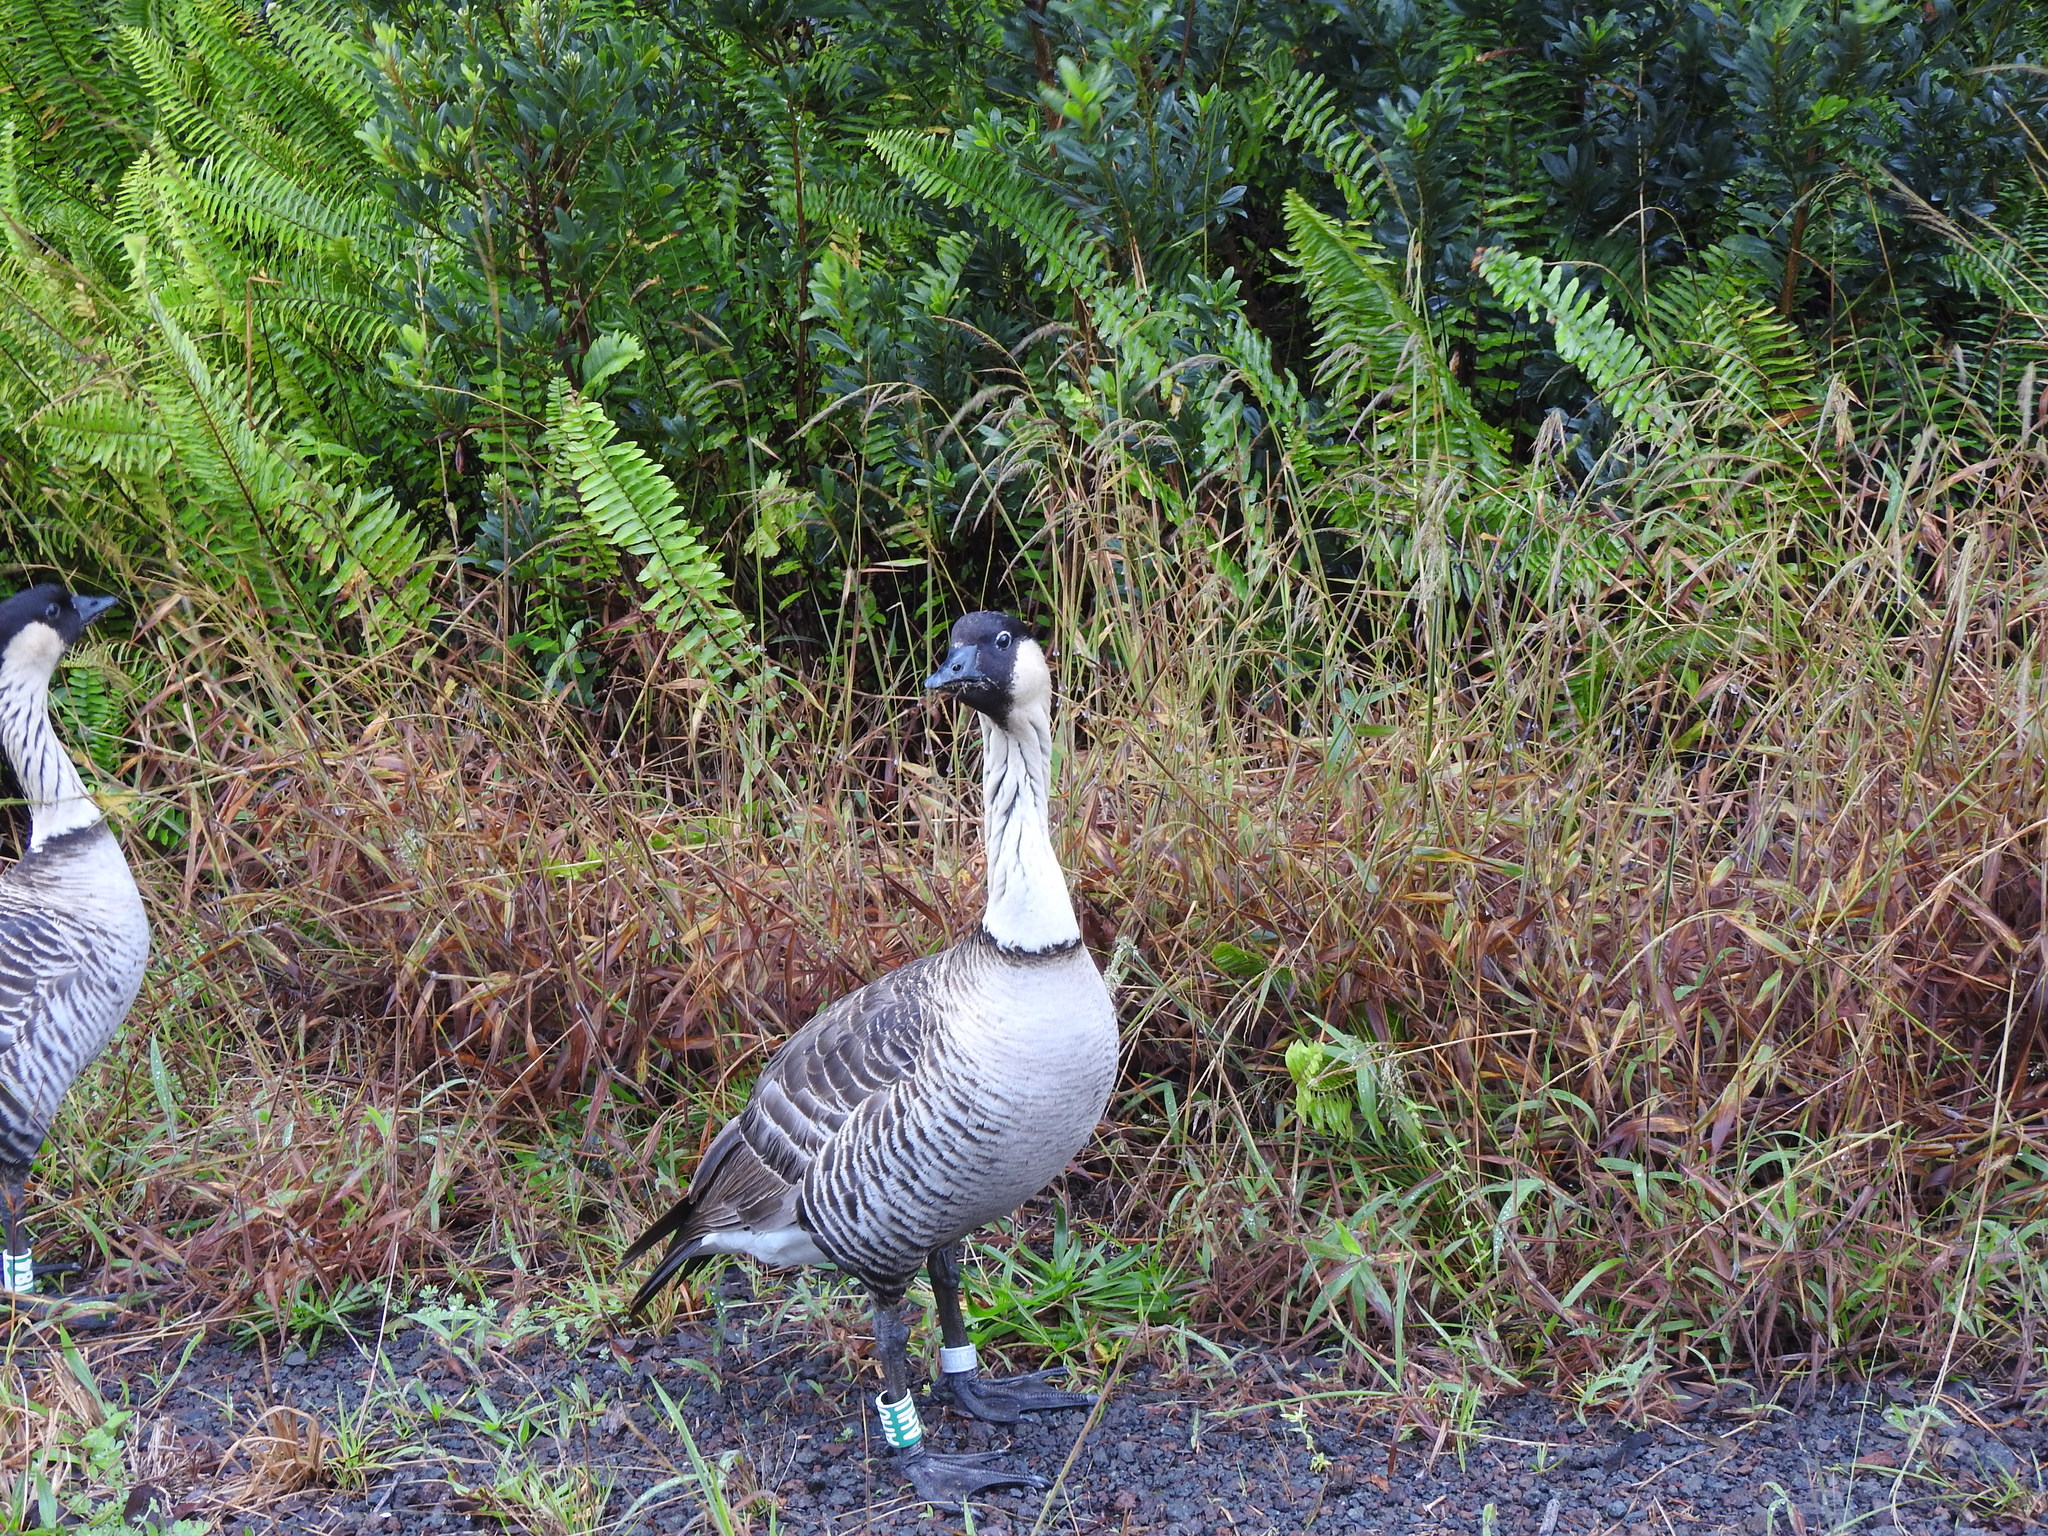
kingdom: Animalia
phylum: Chordata
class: Aves
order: Anseriformes
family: Anatidae
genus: Branta
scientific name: Branta sandvicensis
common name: Nene
